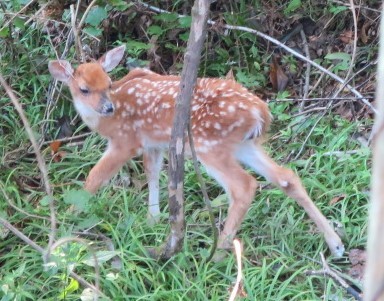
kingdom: Animalia
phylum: Chordata
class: Mammalia
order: Artiodactyla
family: Cervidae
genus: Odocoileus
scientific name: Odocoileus virginianus
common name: White-tailed deer
